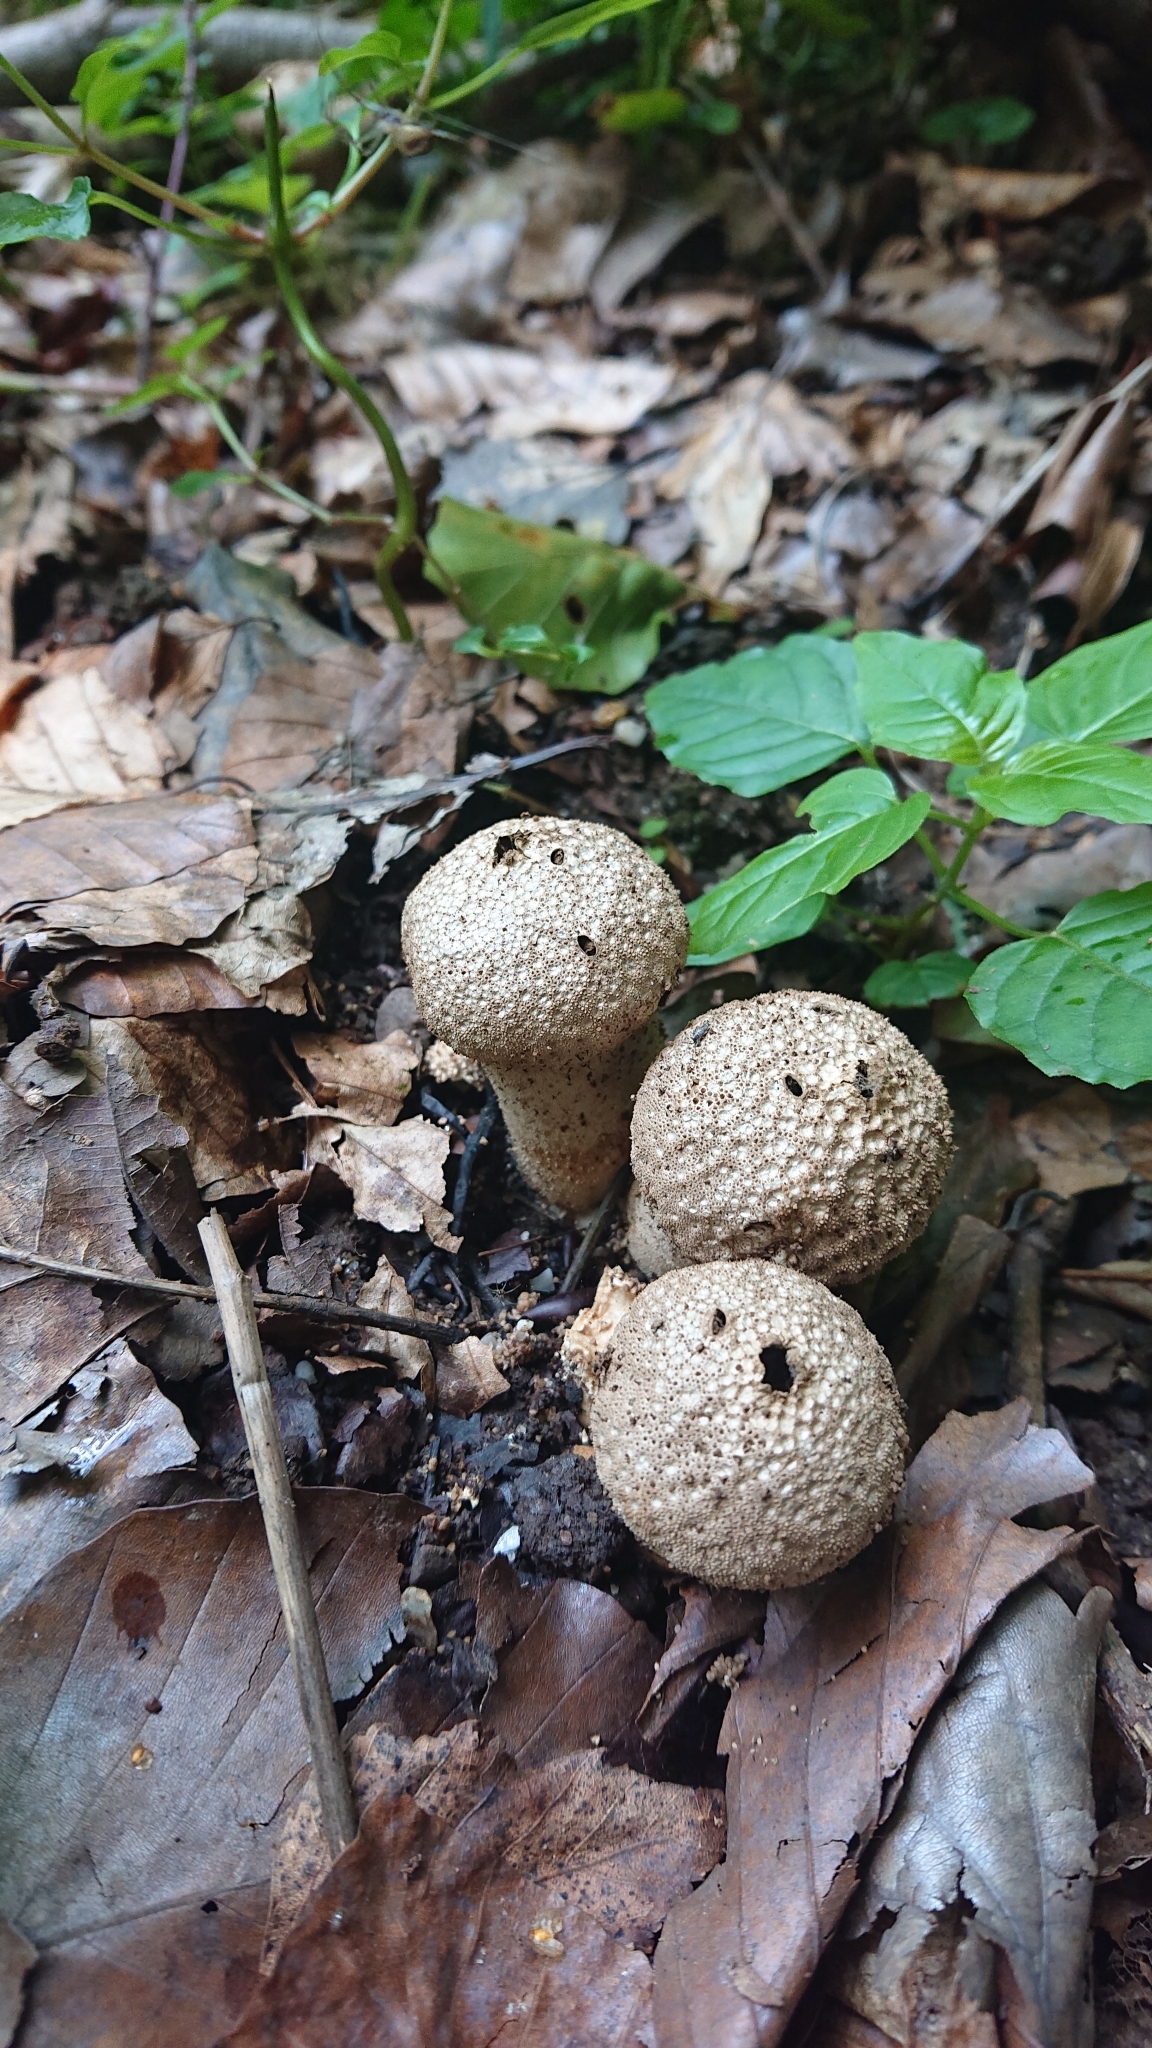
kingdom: Fungi
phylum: Basidiomycota
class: Agaricomycetes
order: Agaricales
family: Lycoperdaceae
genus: Lycoperdon
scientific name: Lycoperdon perlatum
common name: Common puffball
